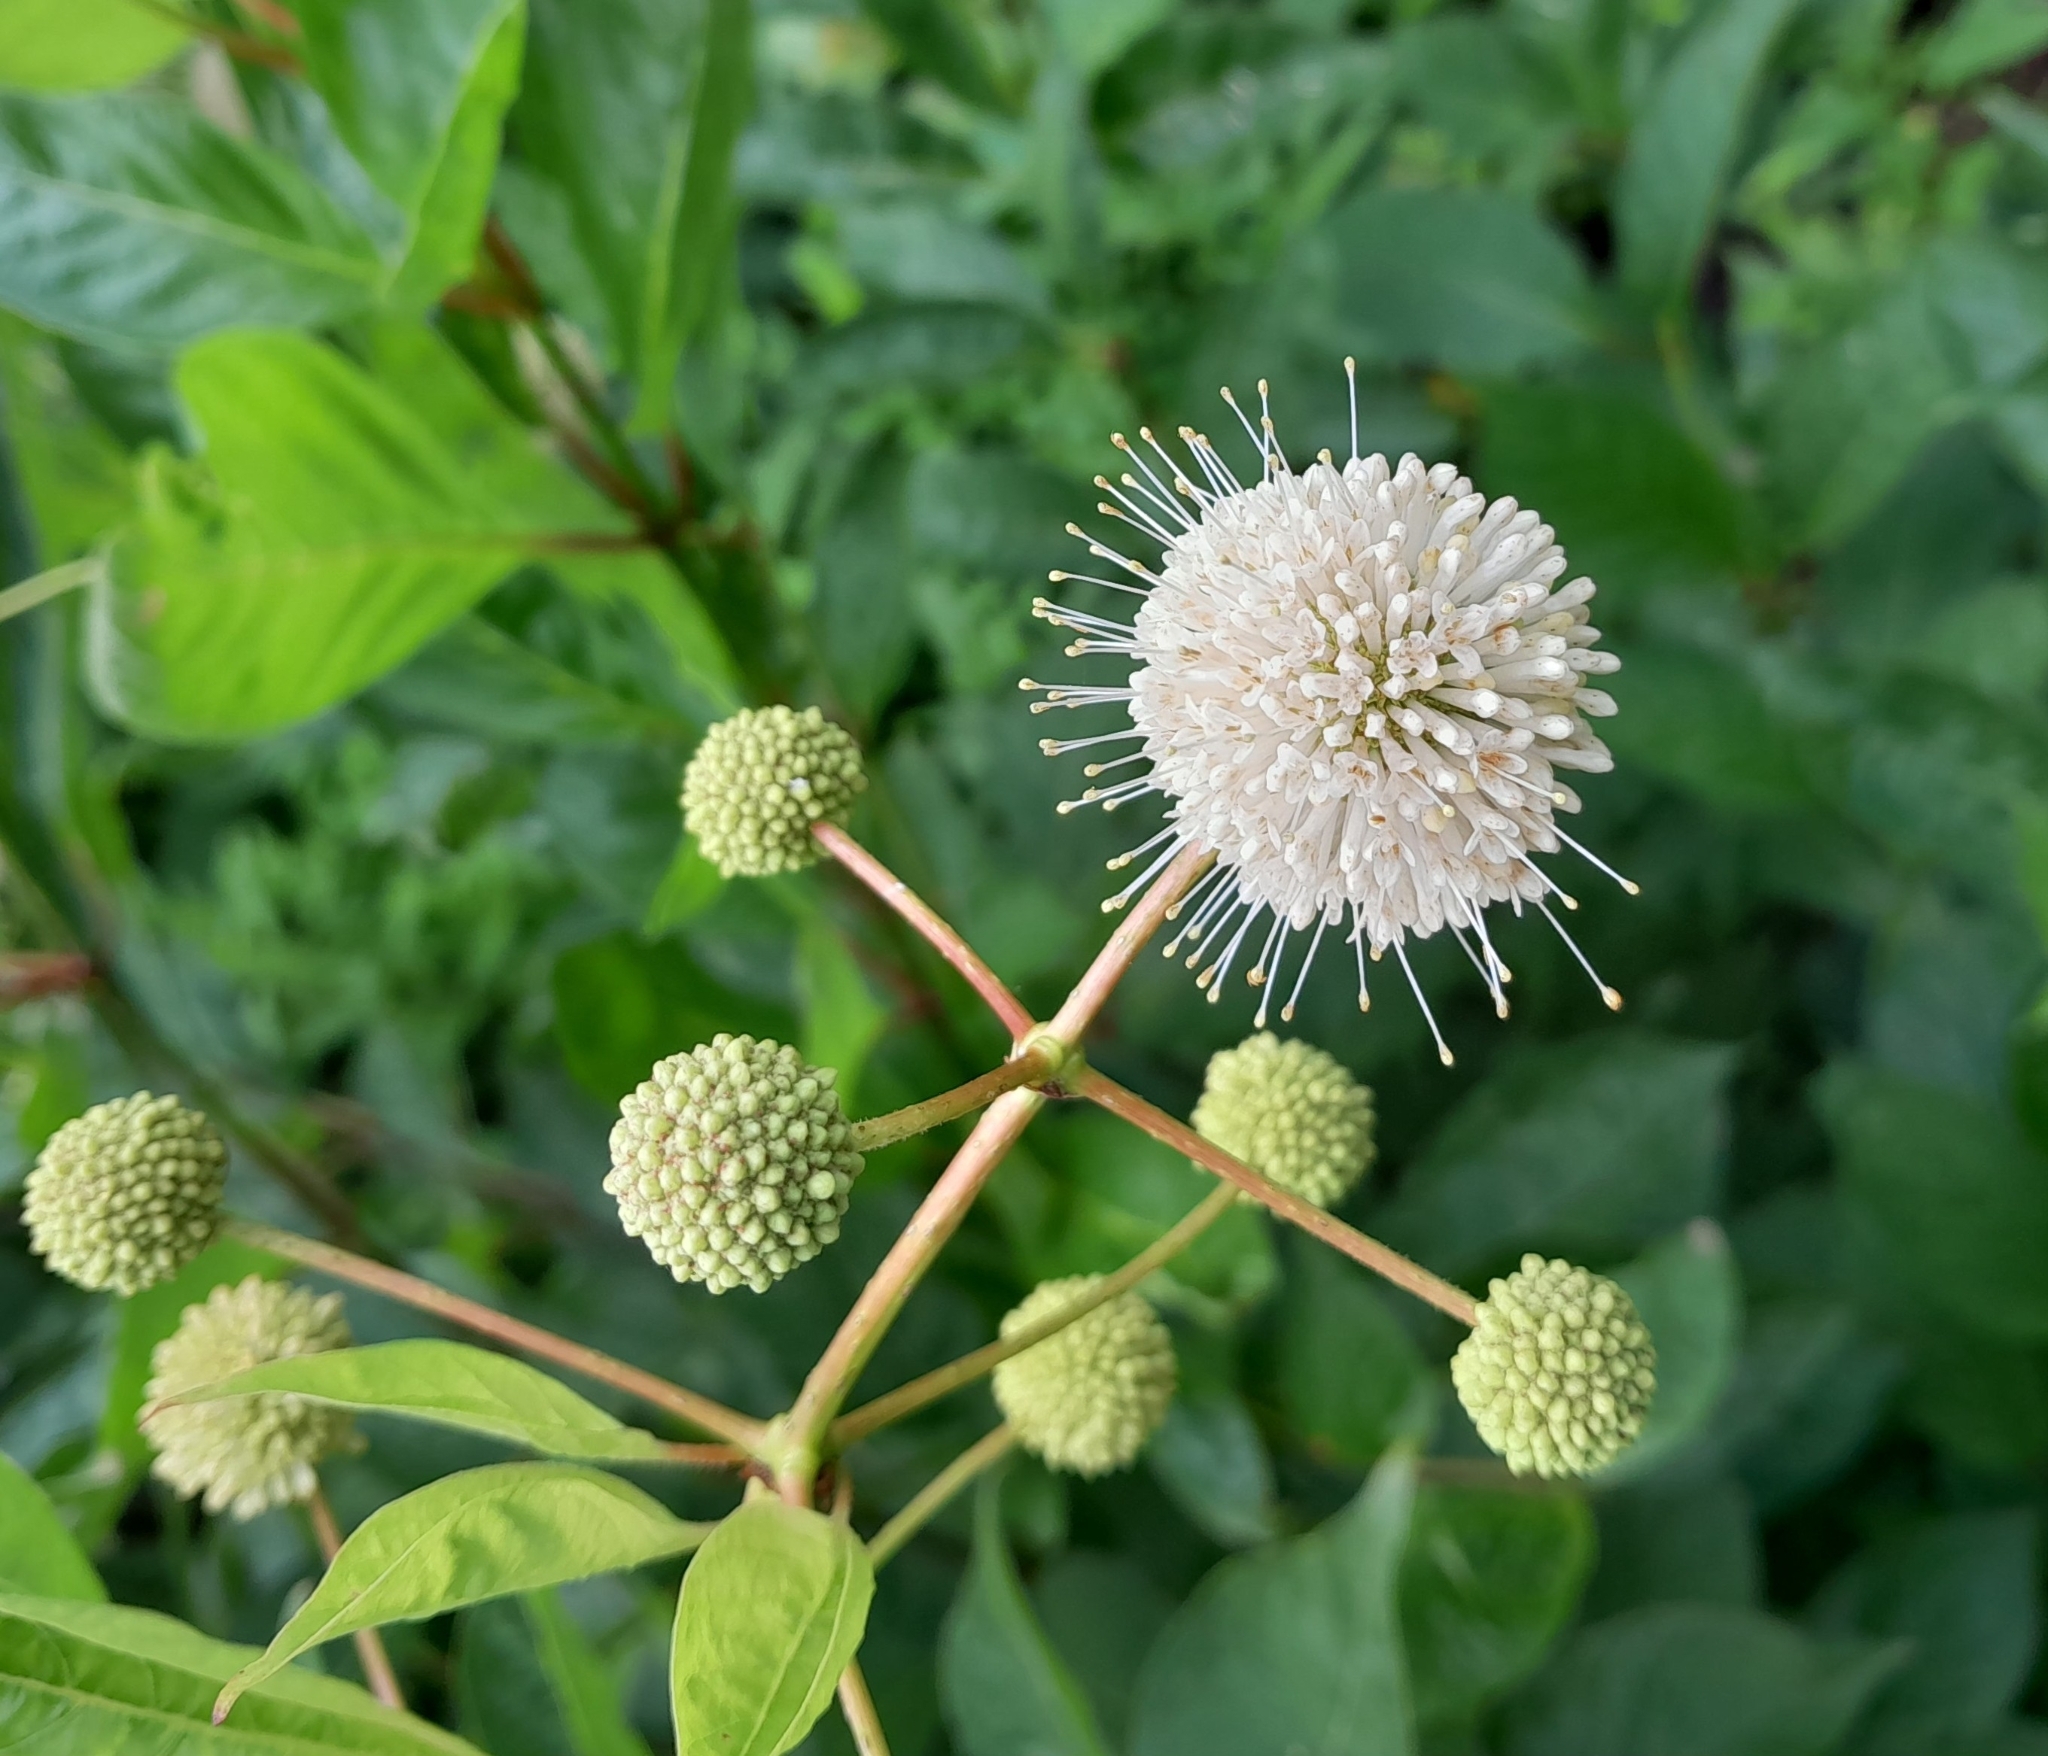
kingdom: Plantae
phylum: Tracheophyta
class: Magnoliopsida
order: Gentianales
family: Rubiaceae
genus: Cephalanthus
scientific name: Cephalanthus occidentalis
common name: Button-willow
